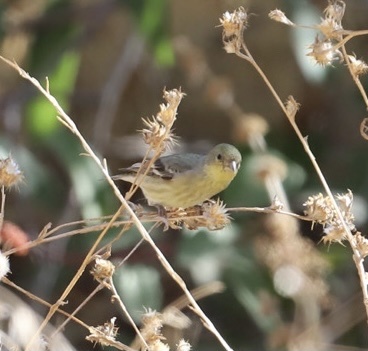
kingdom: Animalia
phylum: Chordata
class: Aves
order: Passeriformes
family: Fringillidae
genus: Spinus
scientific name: Spinus psaltria
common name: Lesser goldfinch
